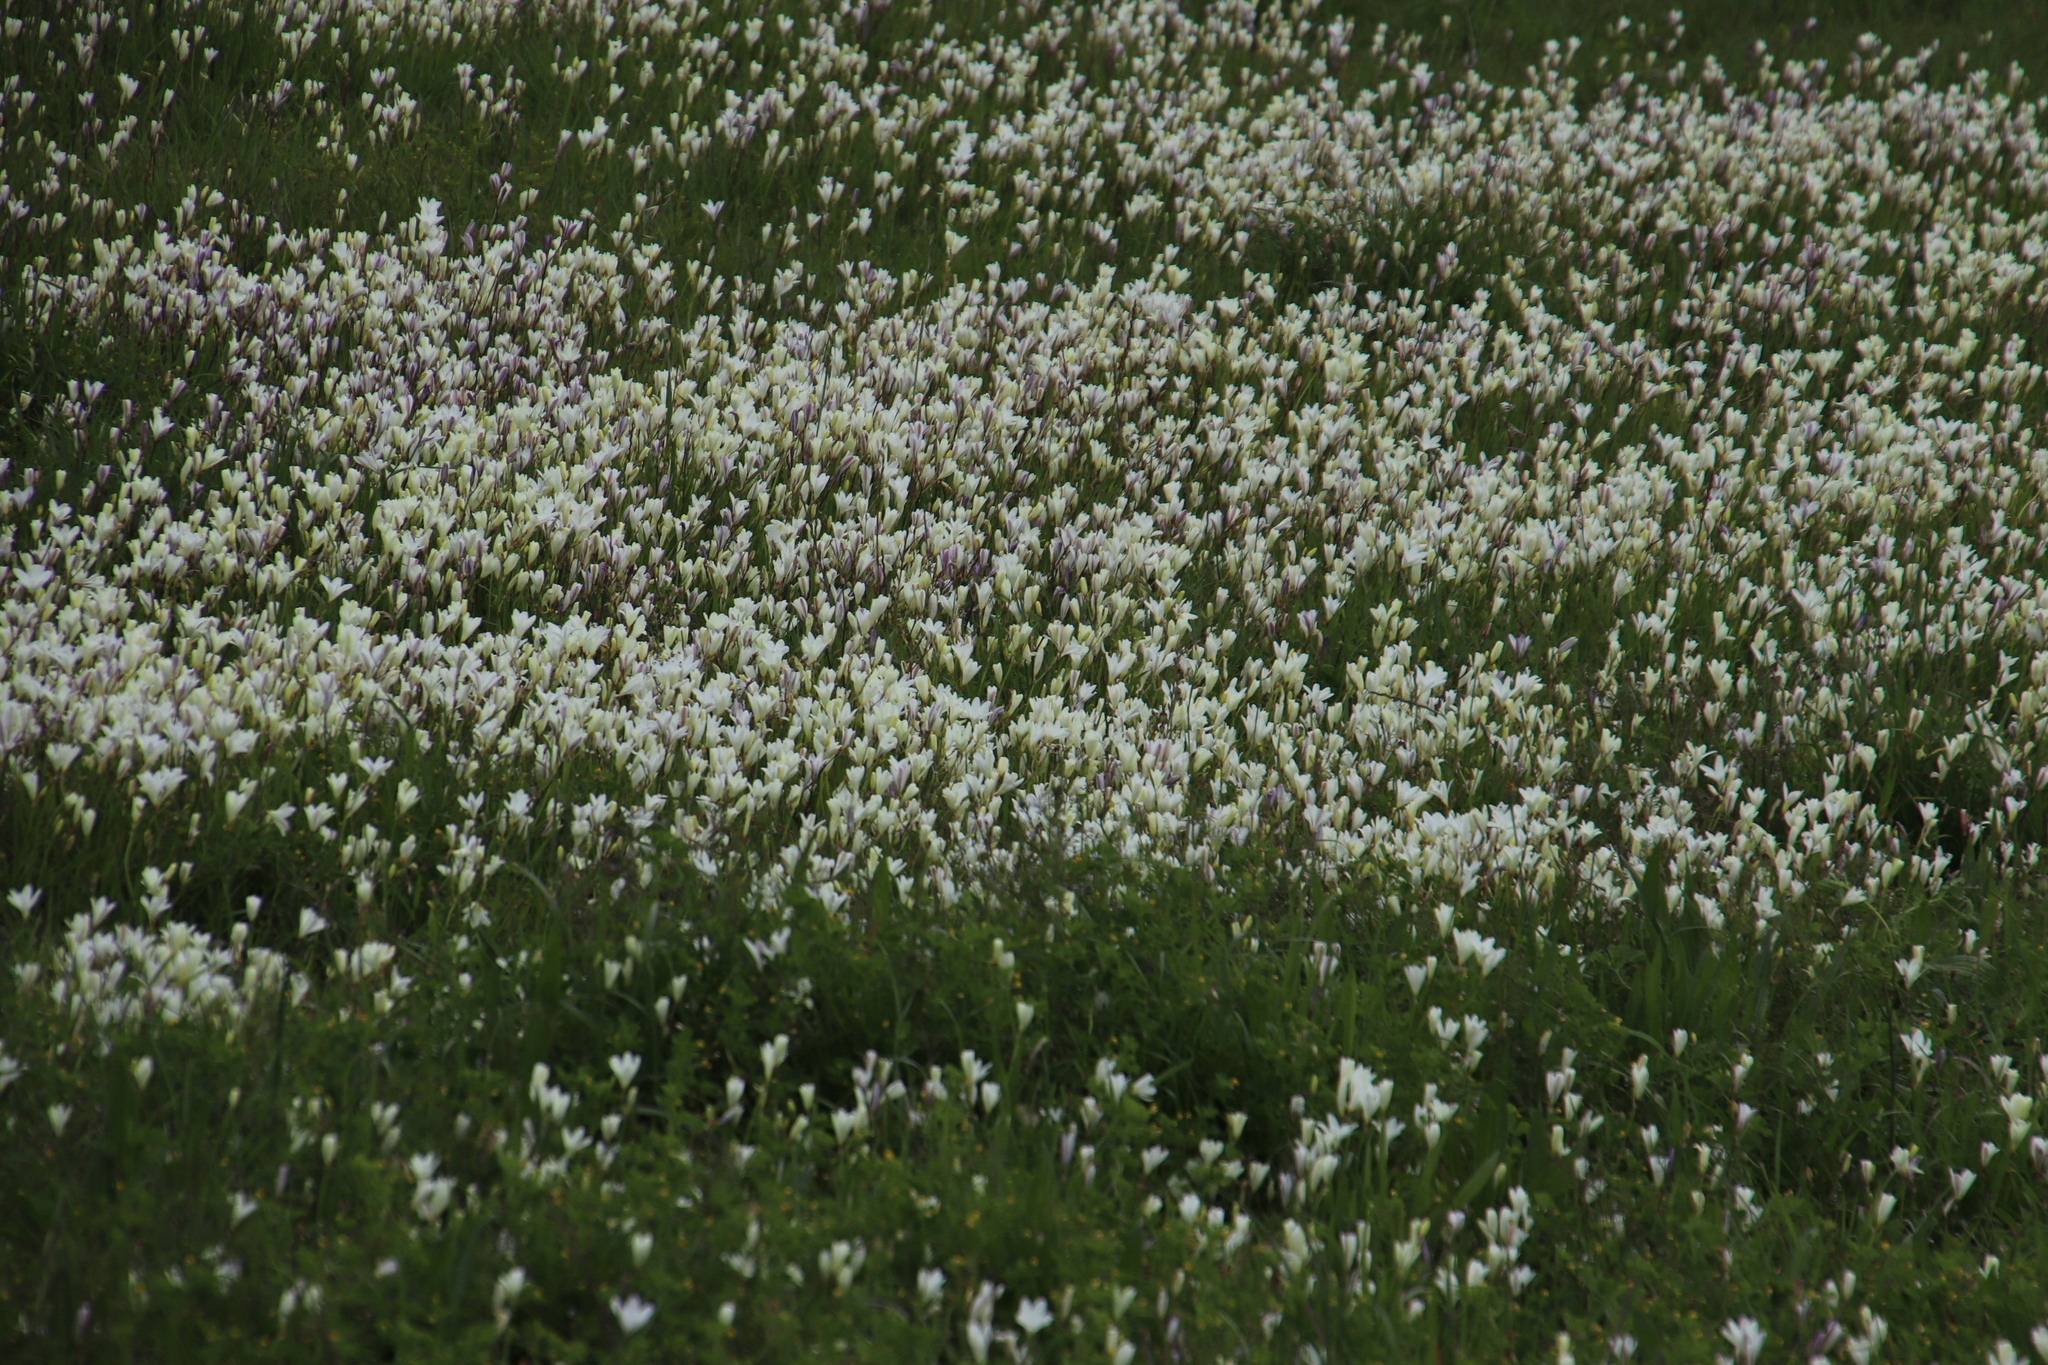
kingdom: Plantae
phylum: Tracheophyta
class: Liliopsida
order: Asparagales
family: Iridaceae
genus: Sparaxis
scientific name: Sparaxis bulbifera
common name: Harlequin-flower
